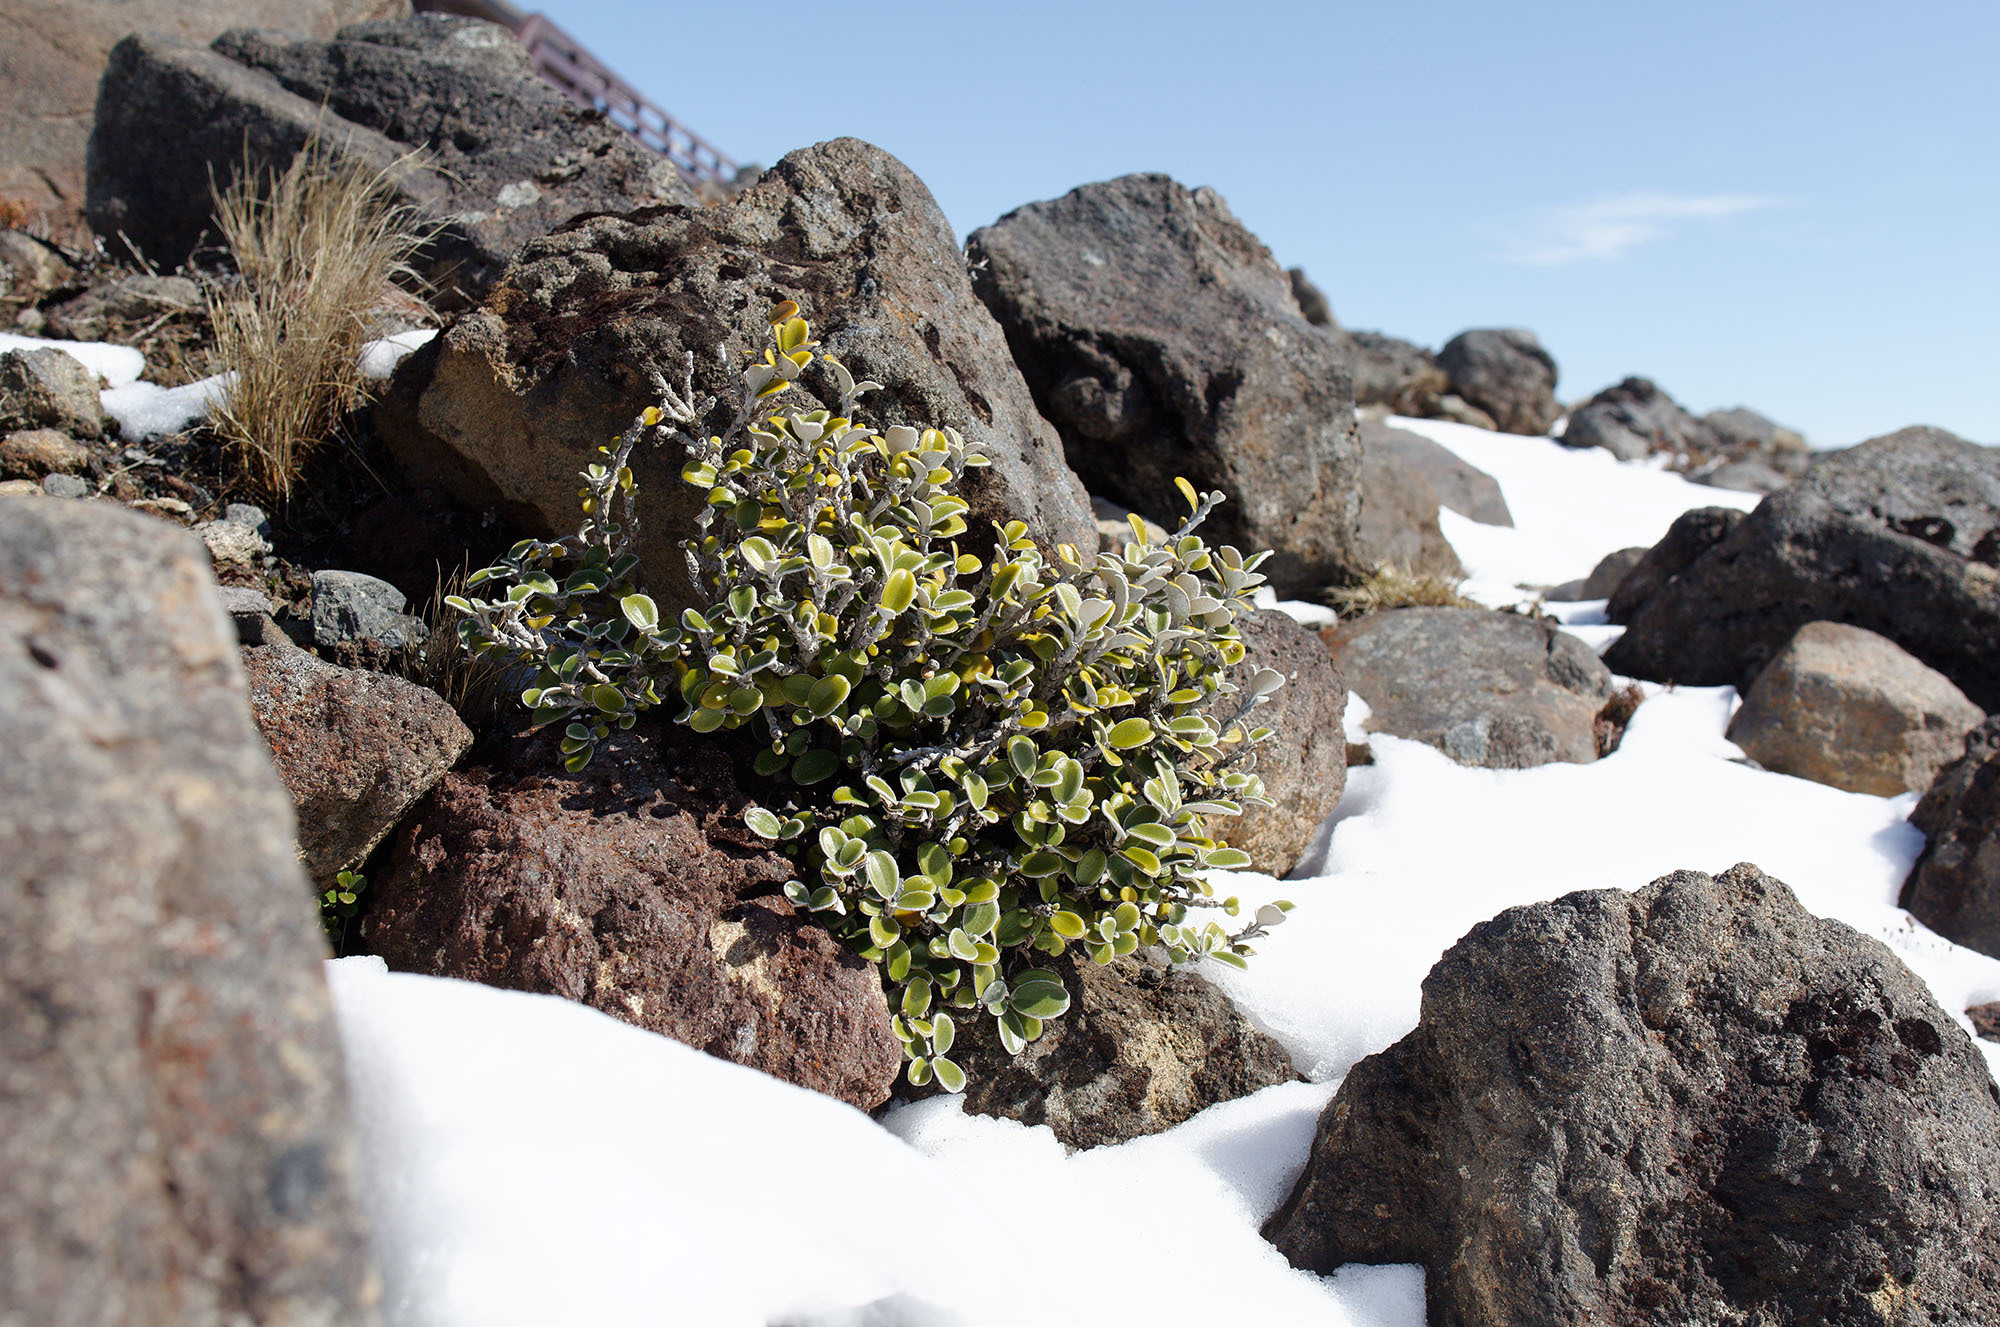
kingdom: Plantae
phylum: Tracheophyta
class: Magnoliopsida
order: Asterales
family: Asteraceae
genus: Brachyglottis
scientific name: Brachyglottis bidwillii
